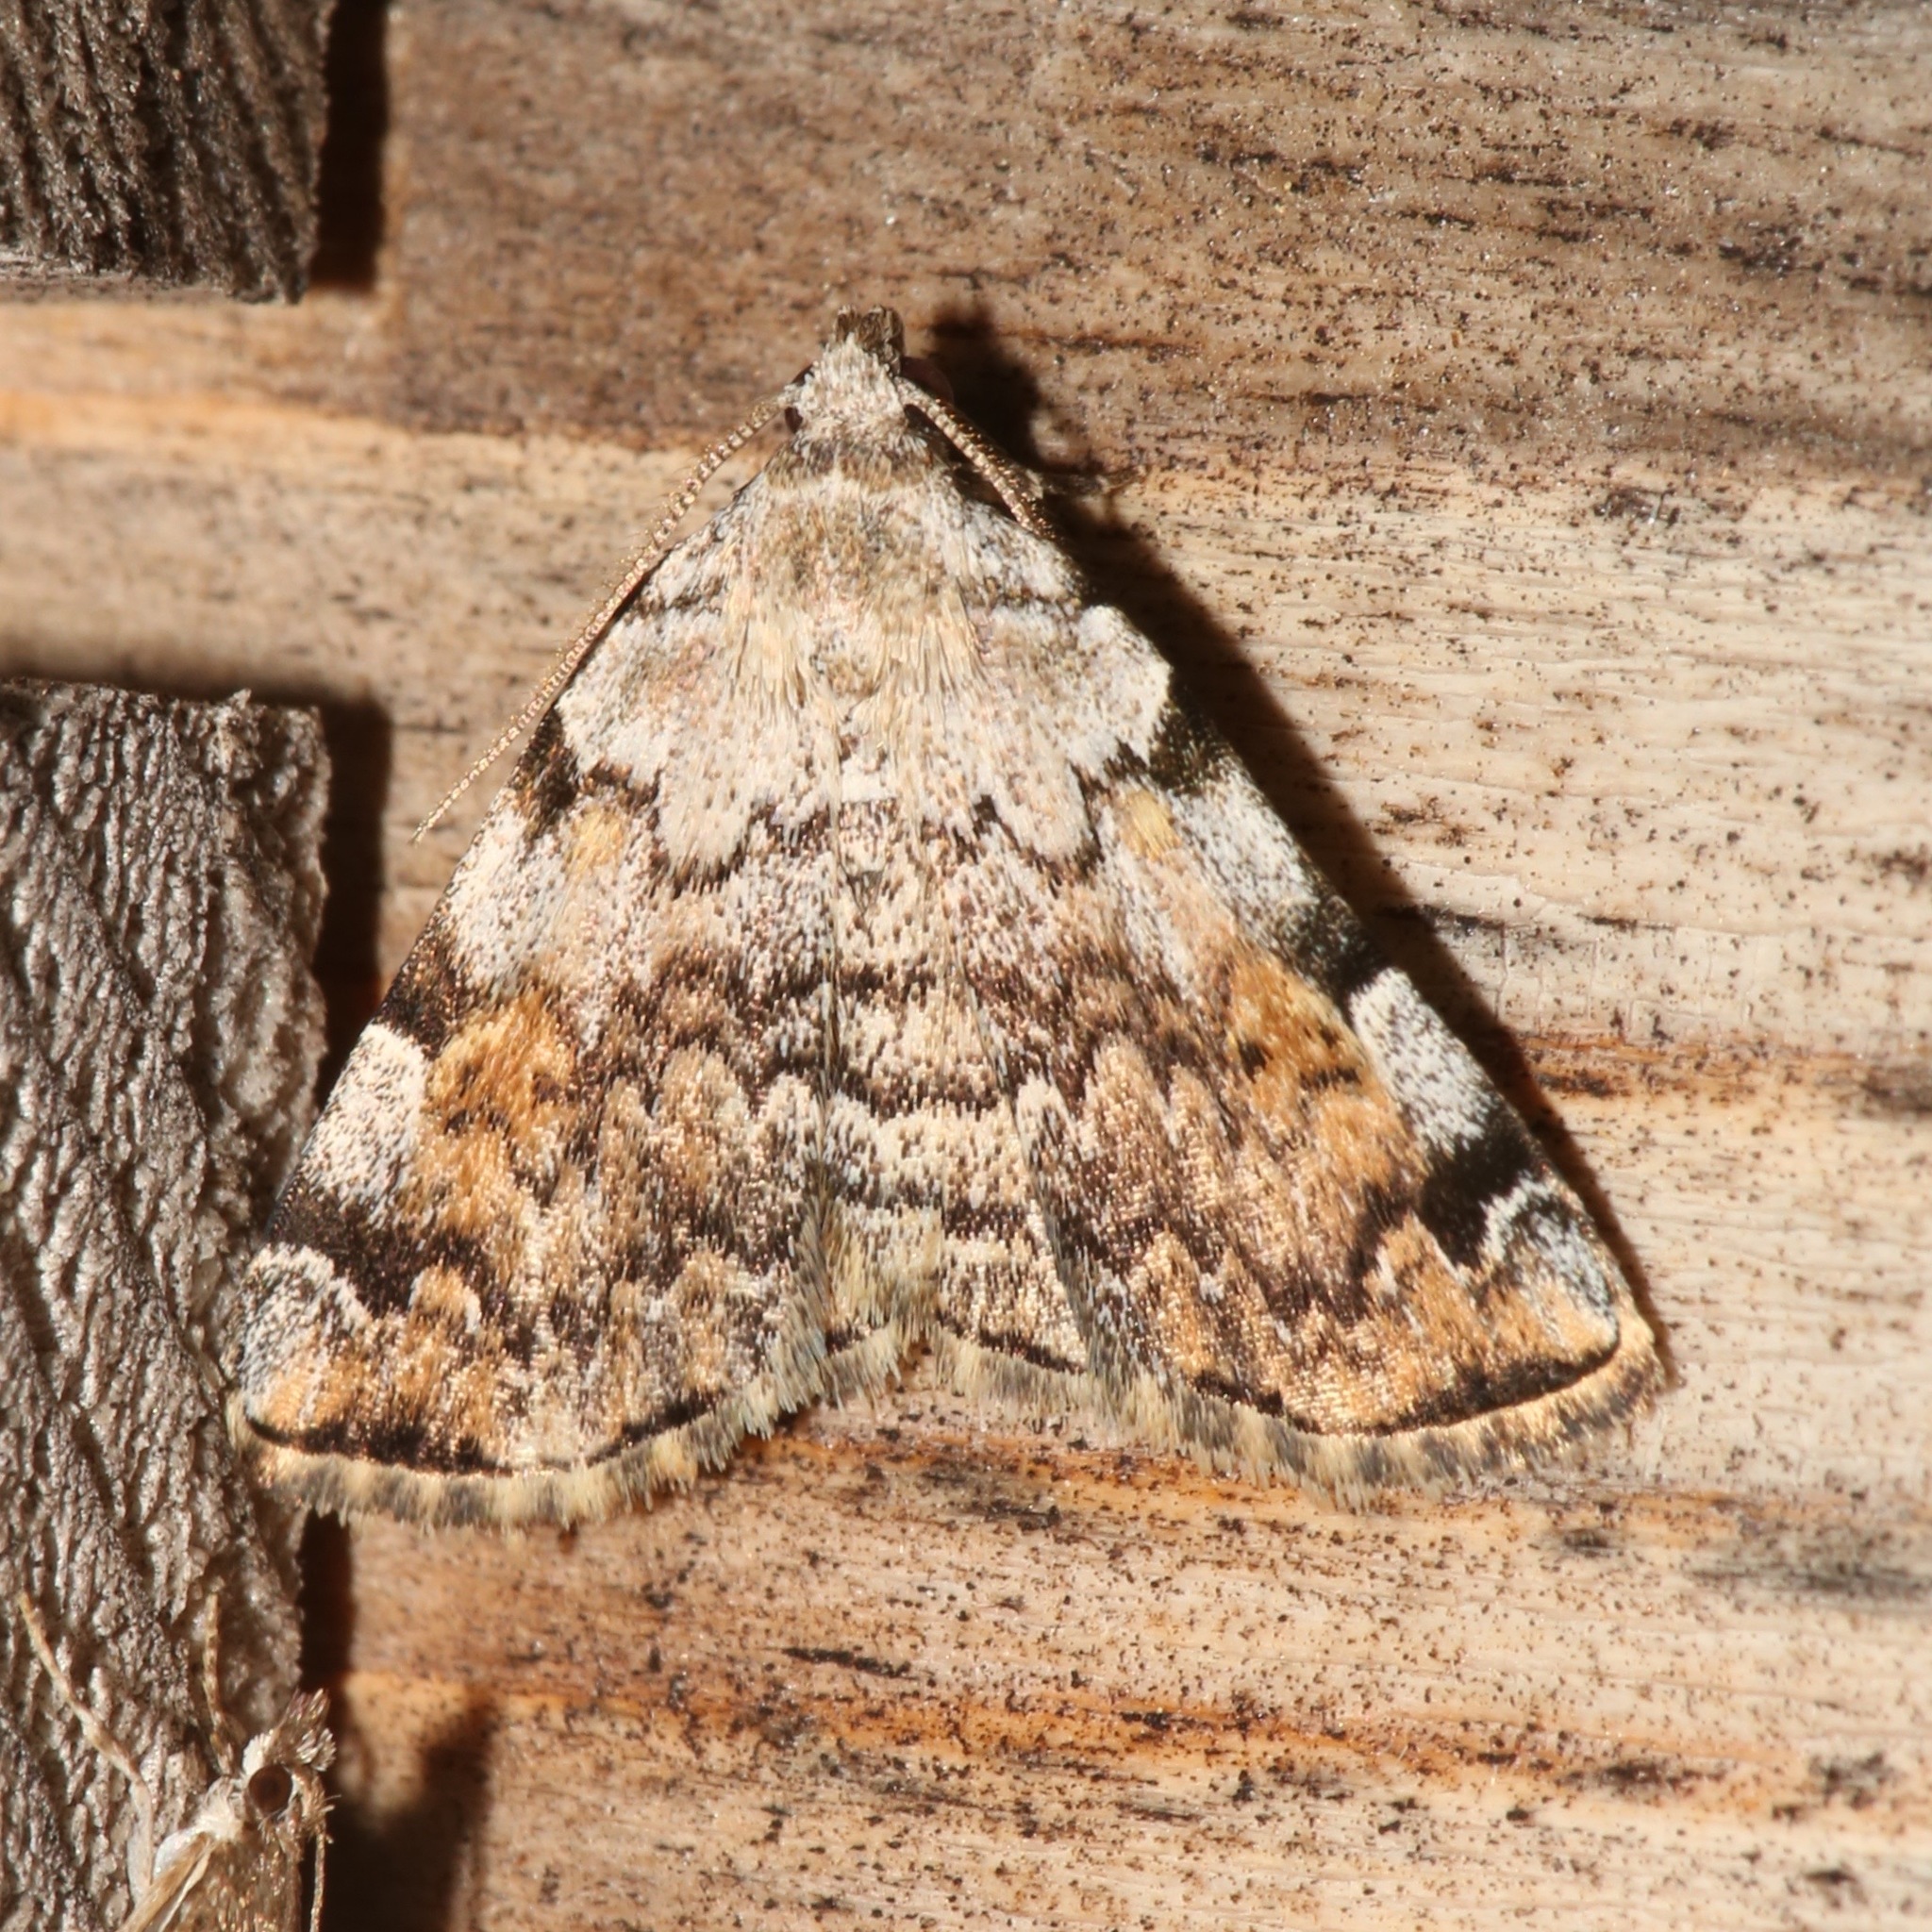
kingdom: Animalia
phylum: Arthropoda
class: Insecta
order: Lepidoptera
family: Erebidae
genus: Idia
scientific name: Idia americalis
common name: American idia moth
